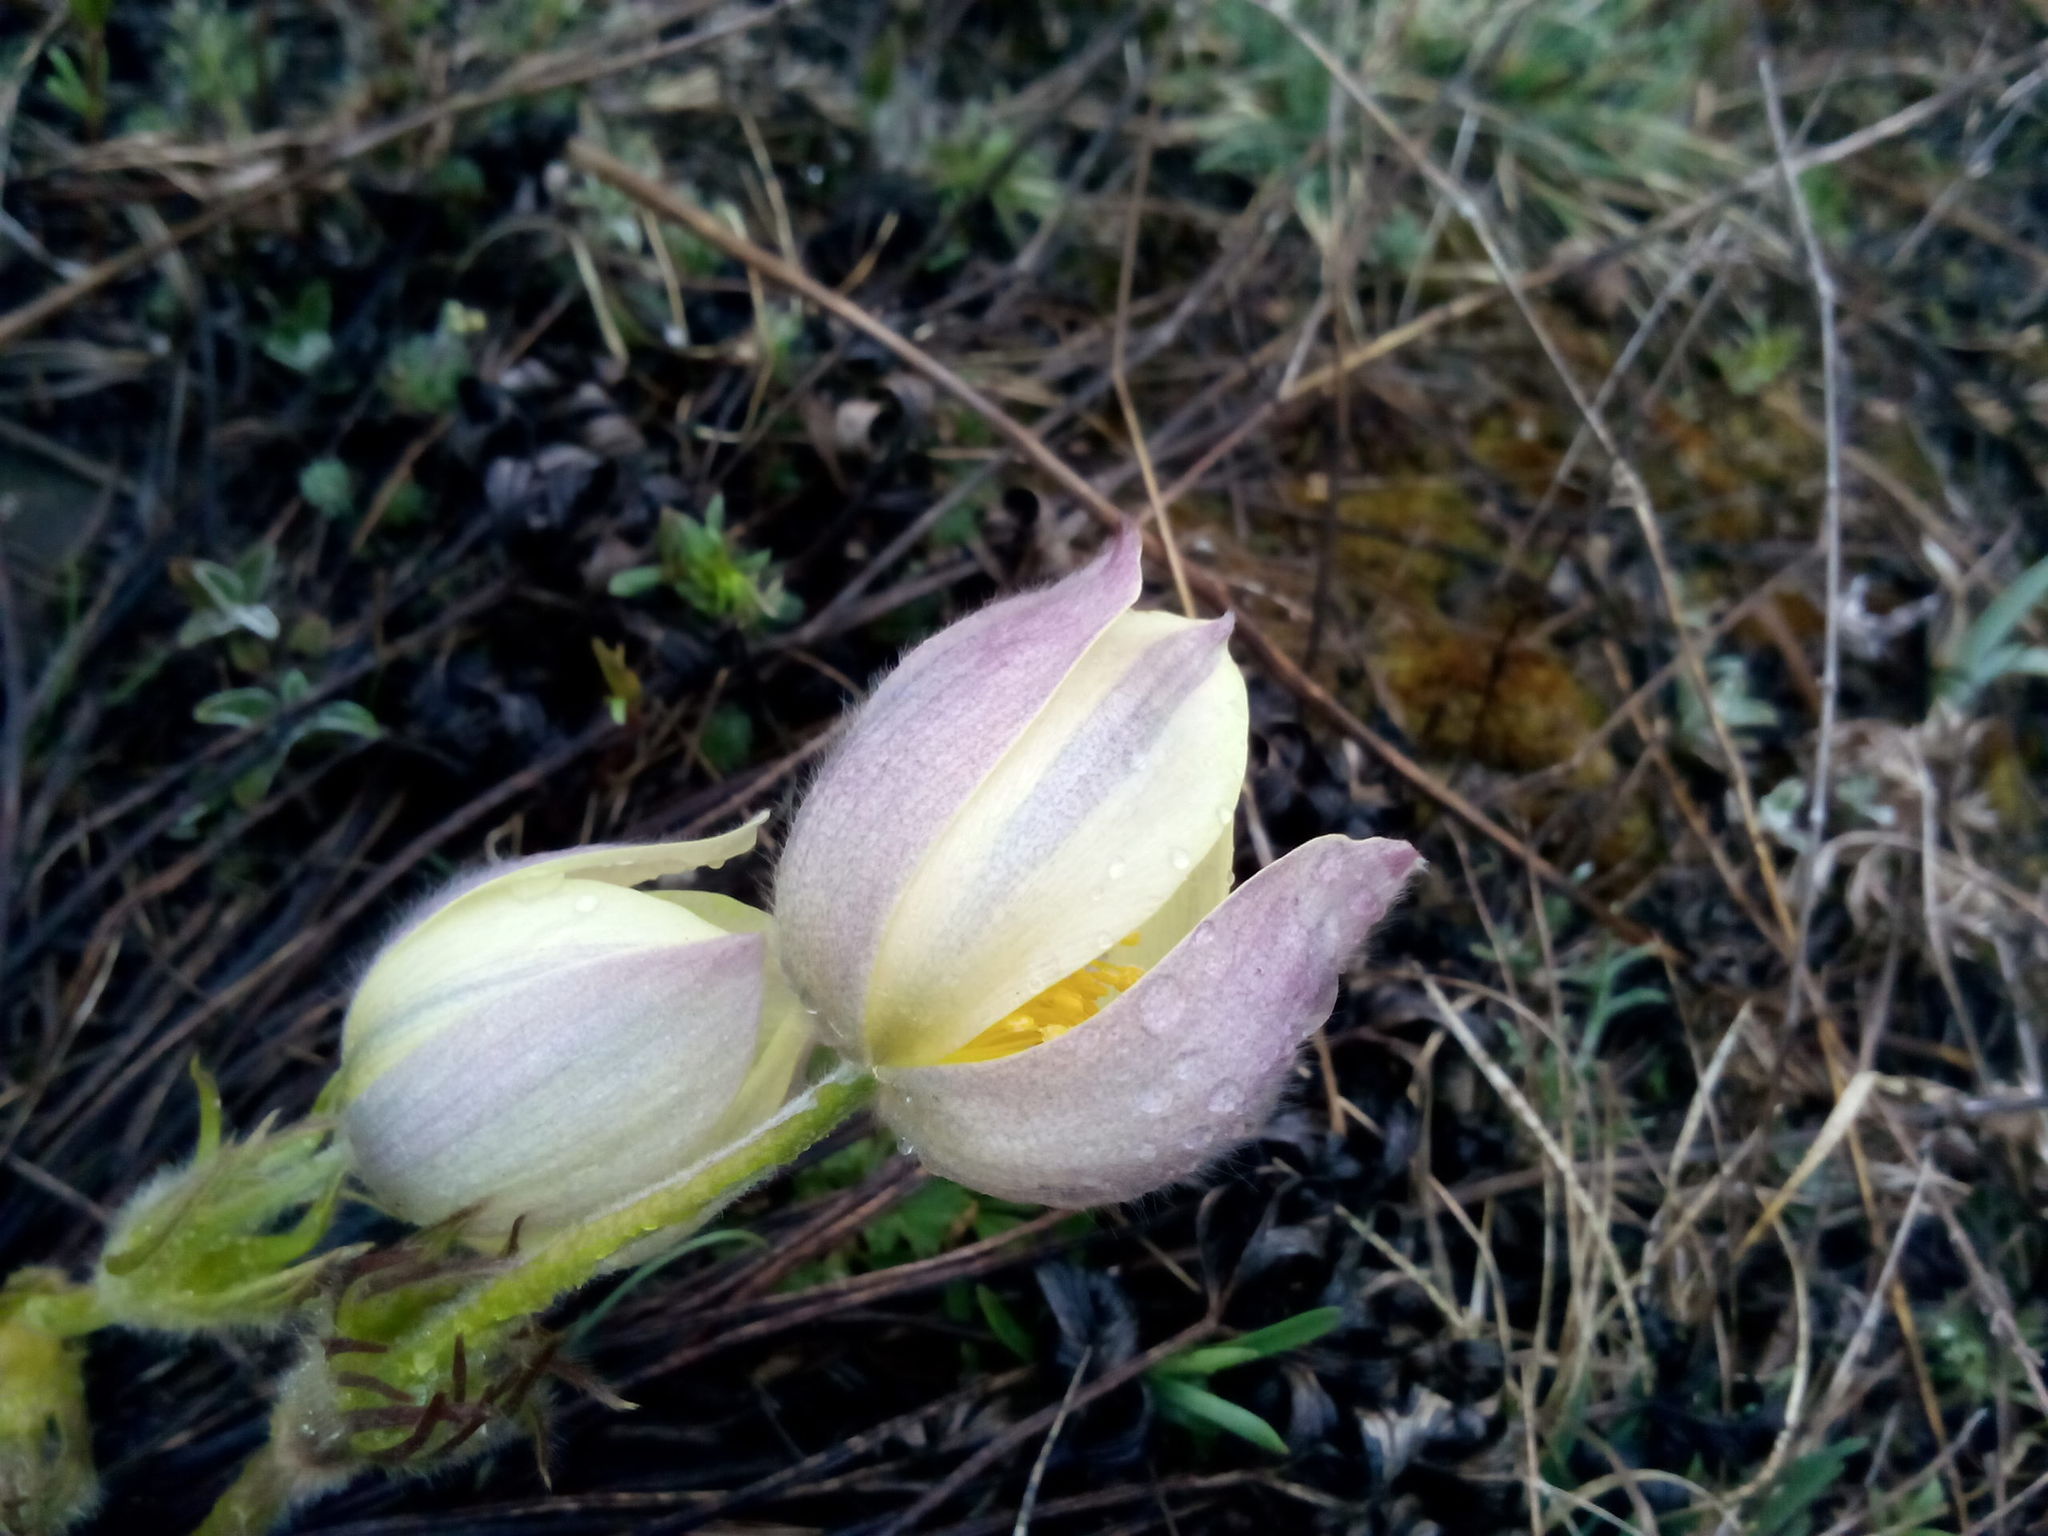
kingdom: Plantae
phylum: Tracheophyta
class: Magnoliopsida
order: Ranunculales
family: Ranunculaceae
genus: Pulsatilla
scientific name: Pulsatilla patens
